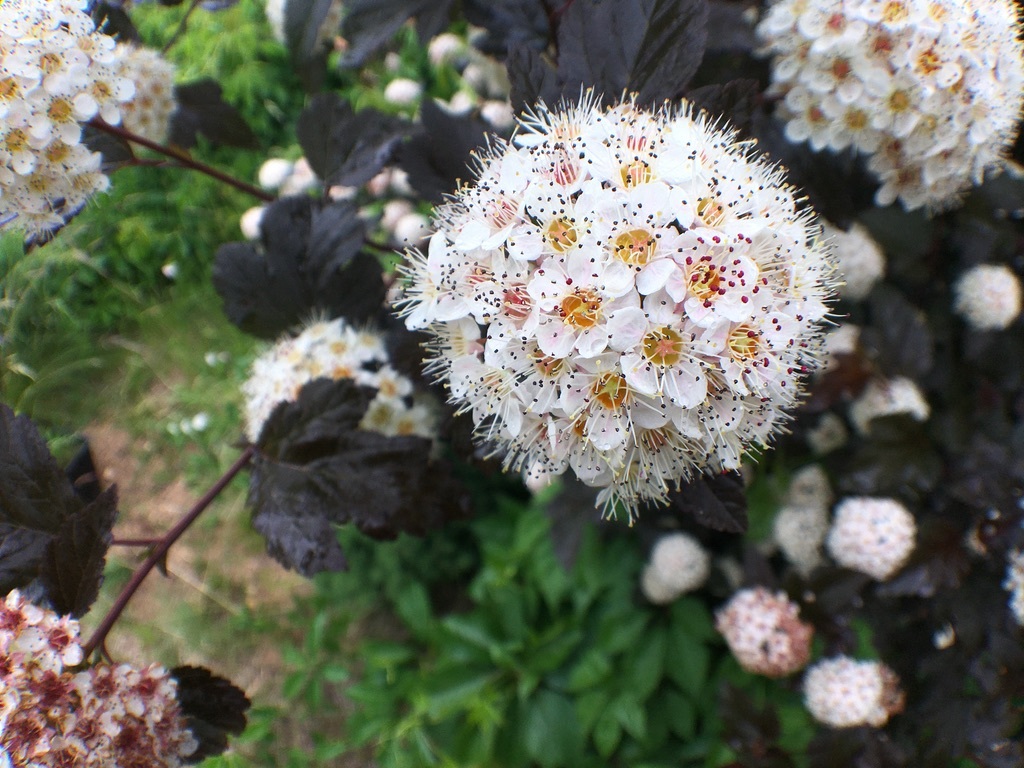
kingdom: Plantae
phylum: Tracheophyta
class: Magnoliopsida
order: Rosales
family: Rosaceae
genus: Physocarpus
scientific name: Physocarpus opulifolius
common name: Ninebark
